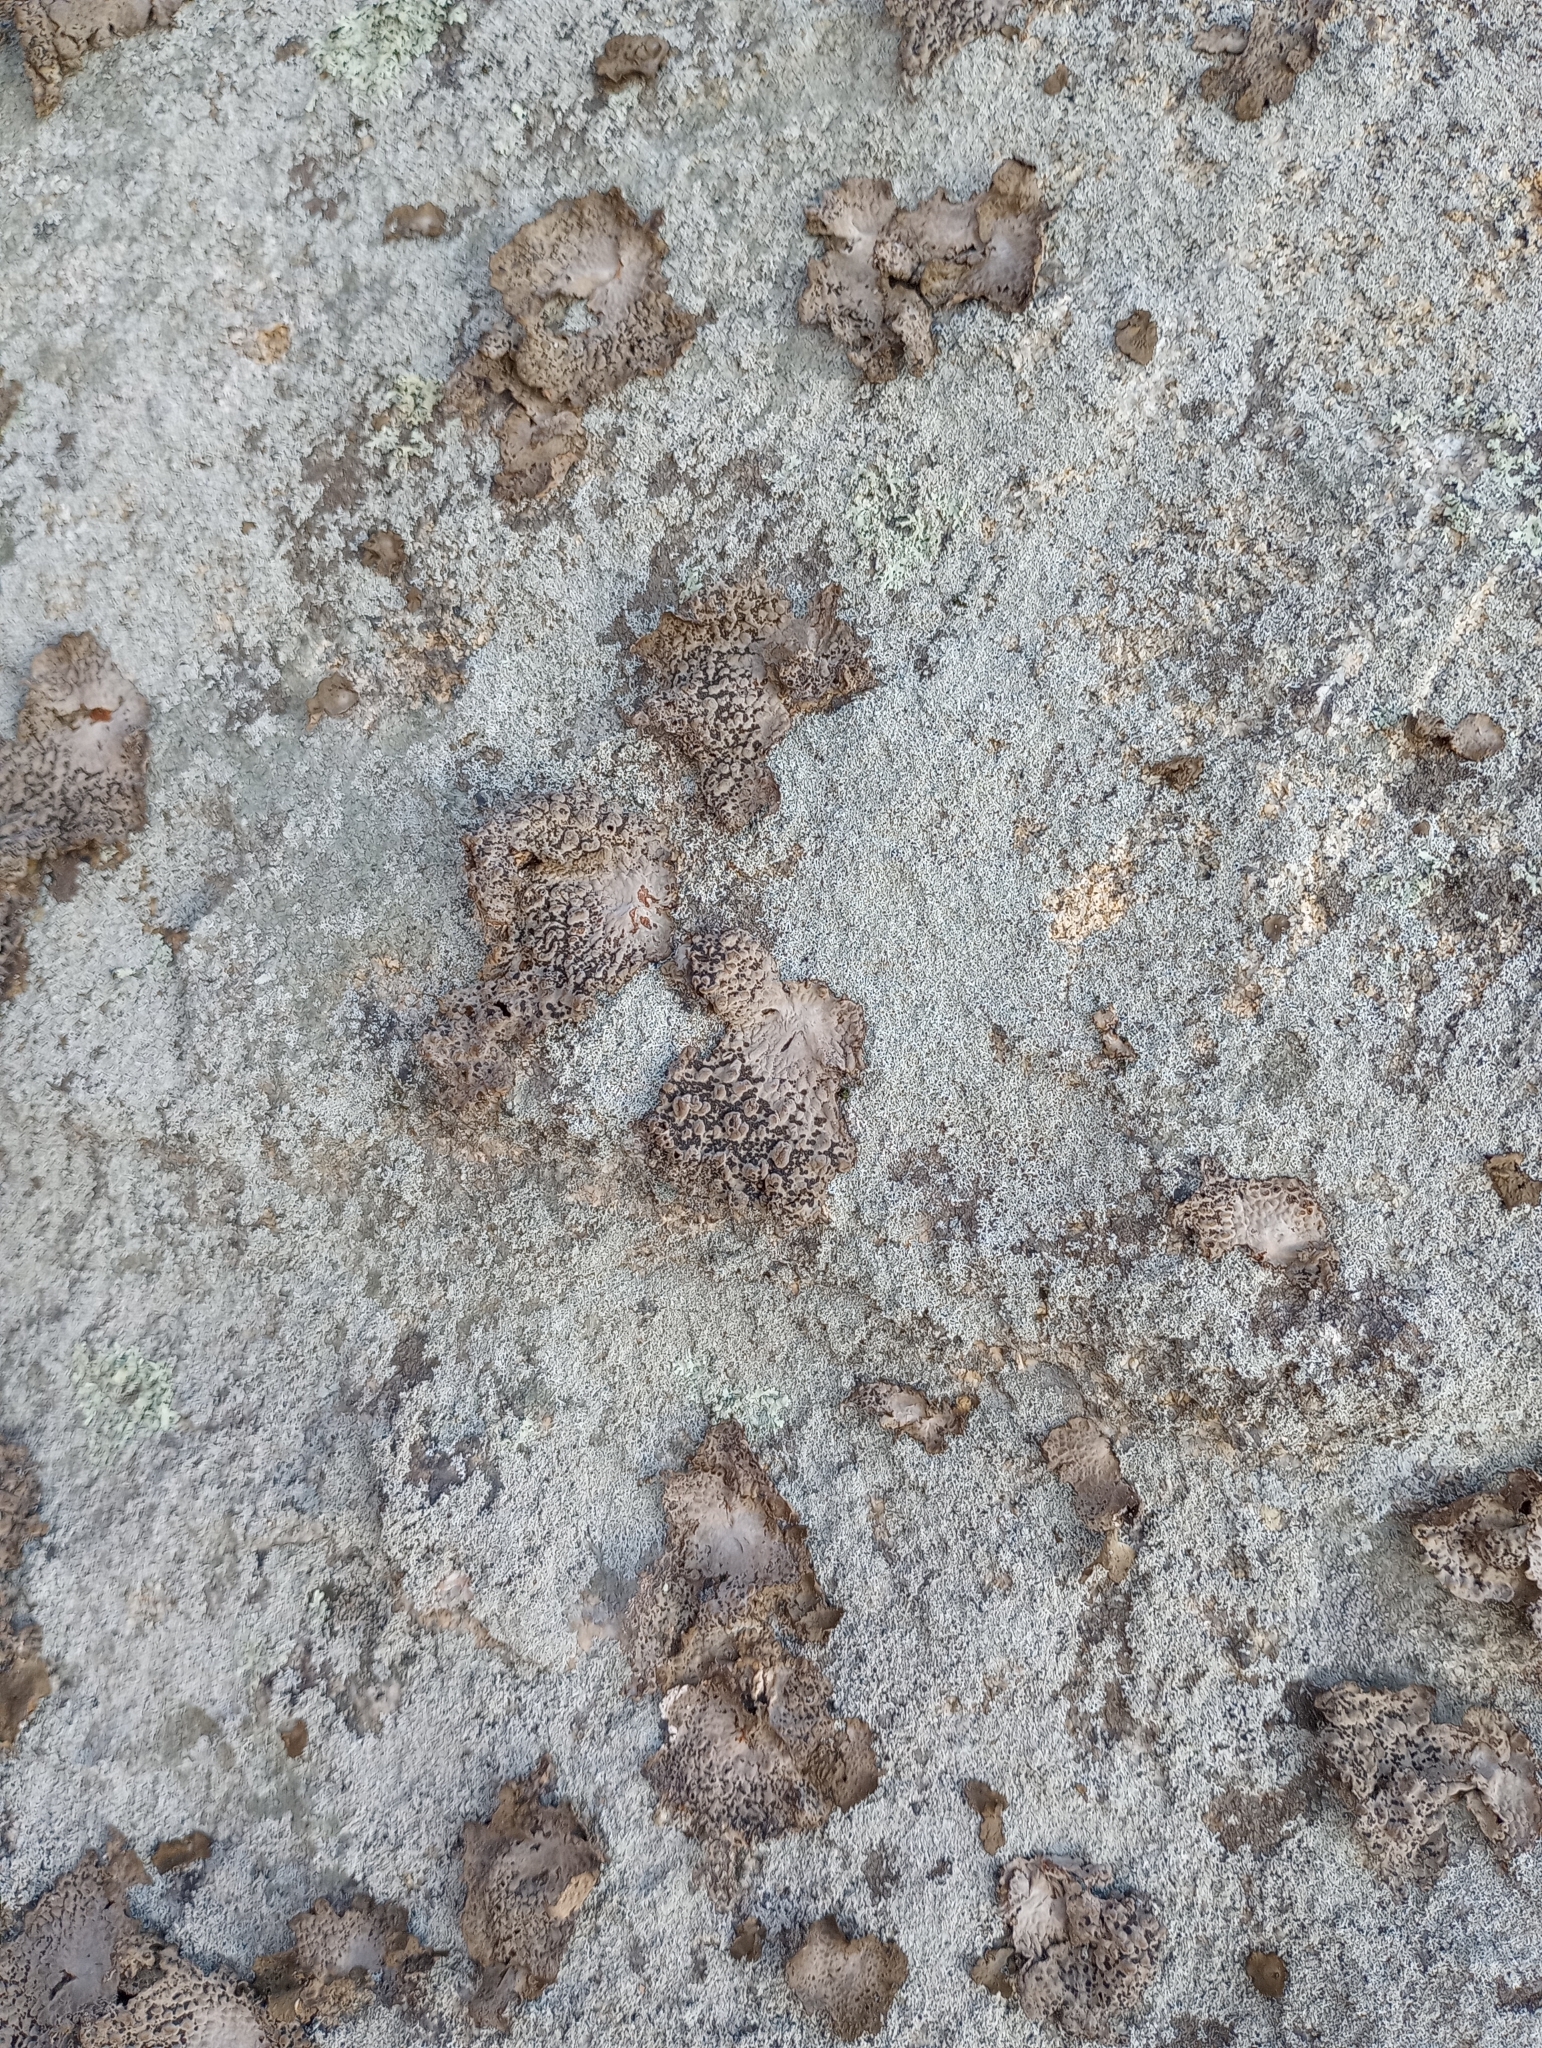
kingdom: Fungi
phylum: Ascomycota
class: Lecanoromycetes
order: Umbilicariales
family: Umbilicariaceae
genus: Lasallia
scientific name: Lasallia papulosa
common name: Common toadskin lichen
